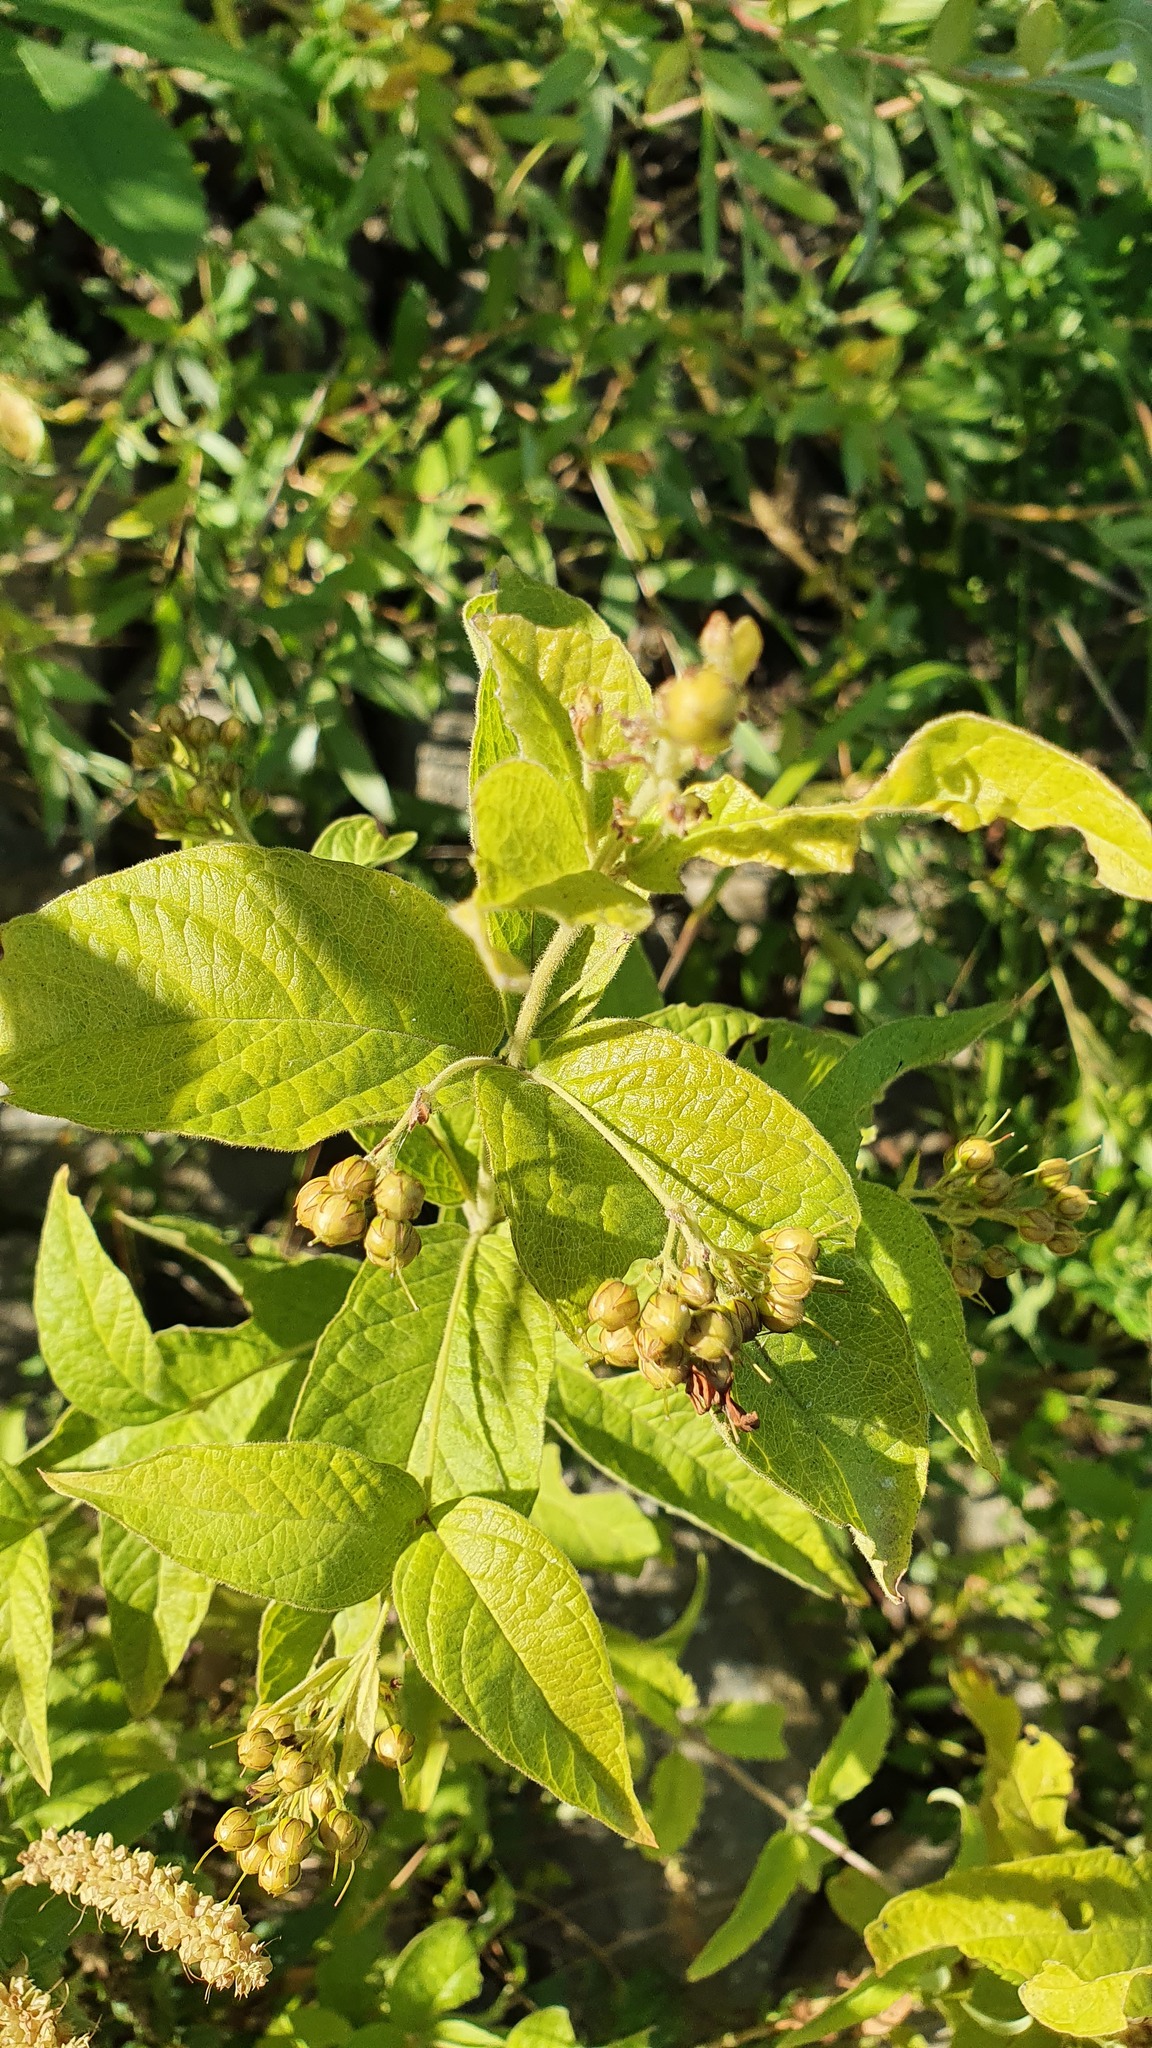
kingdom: Plantae
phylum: Tracheophyta
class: Magnoliopsida
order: Ericales
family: Primulaceae
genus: Lysimachia
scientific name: Lysimachia vulgaris
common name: Yellow loosestrife
